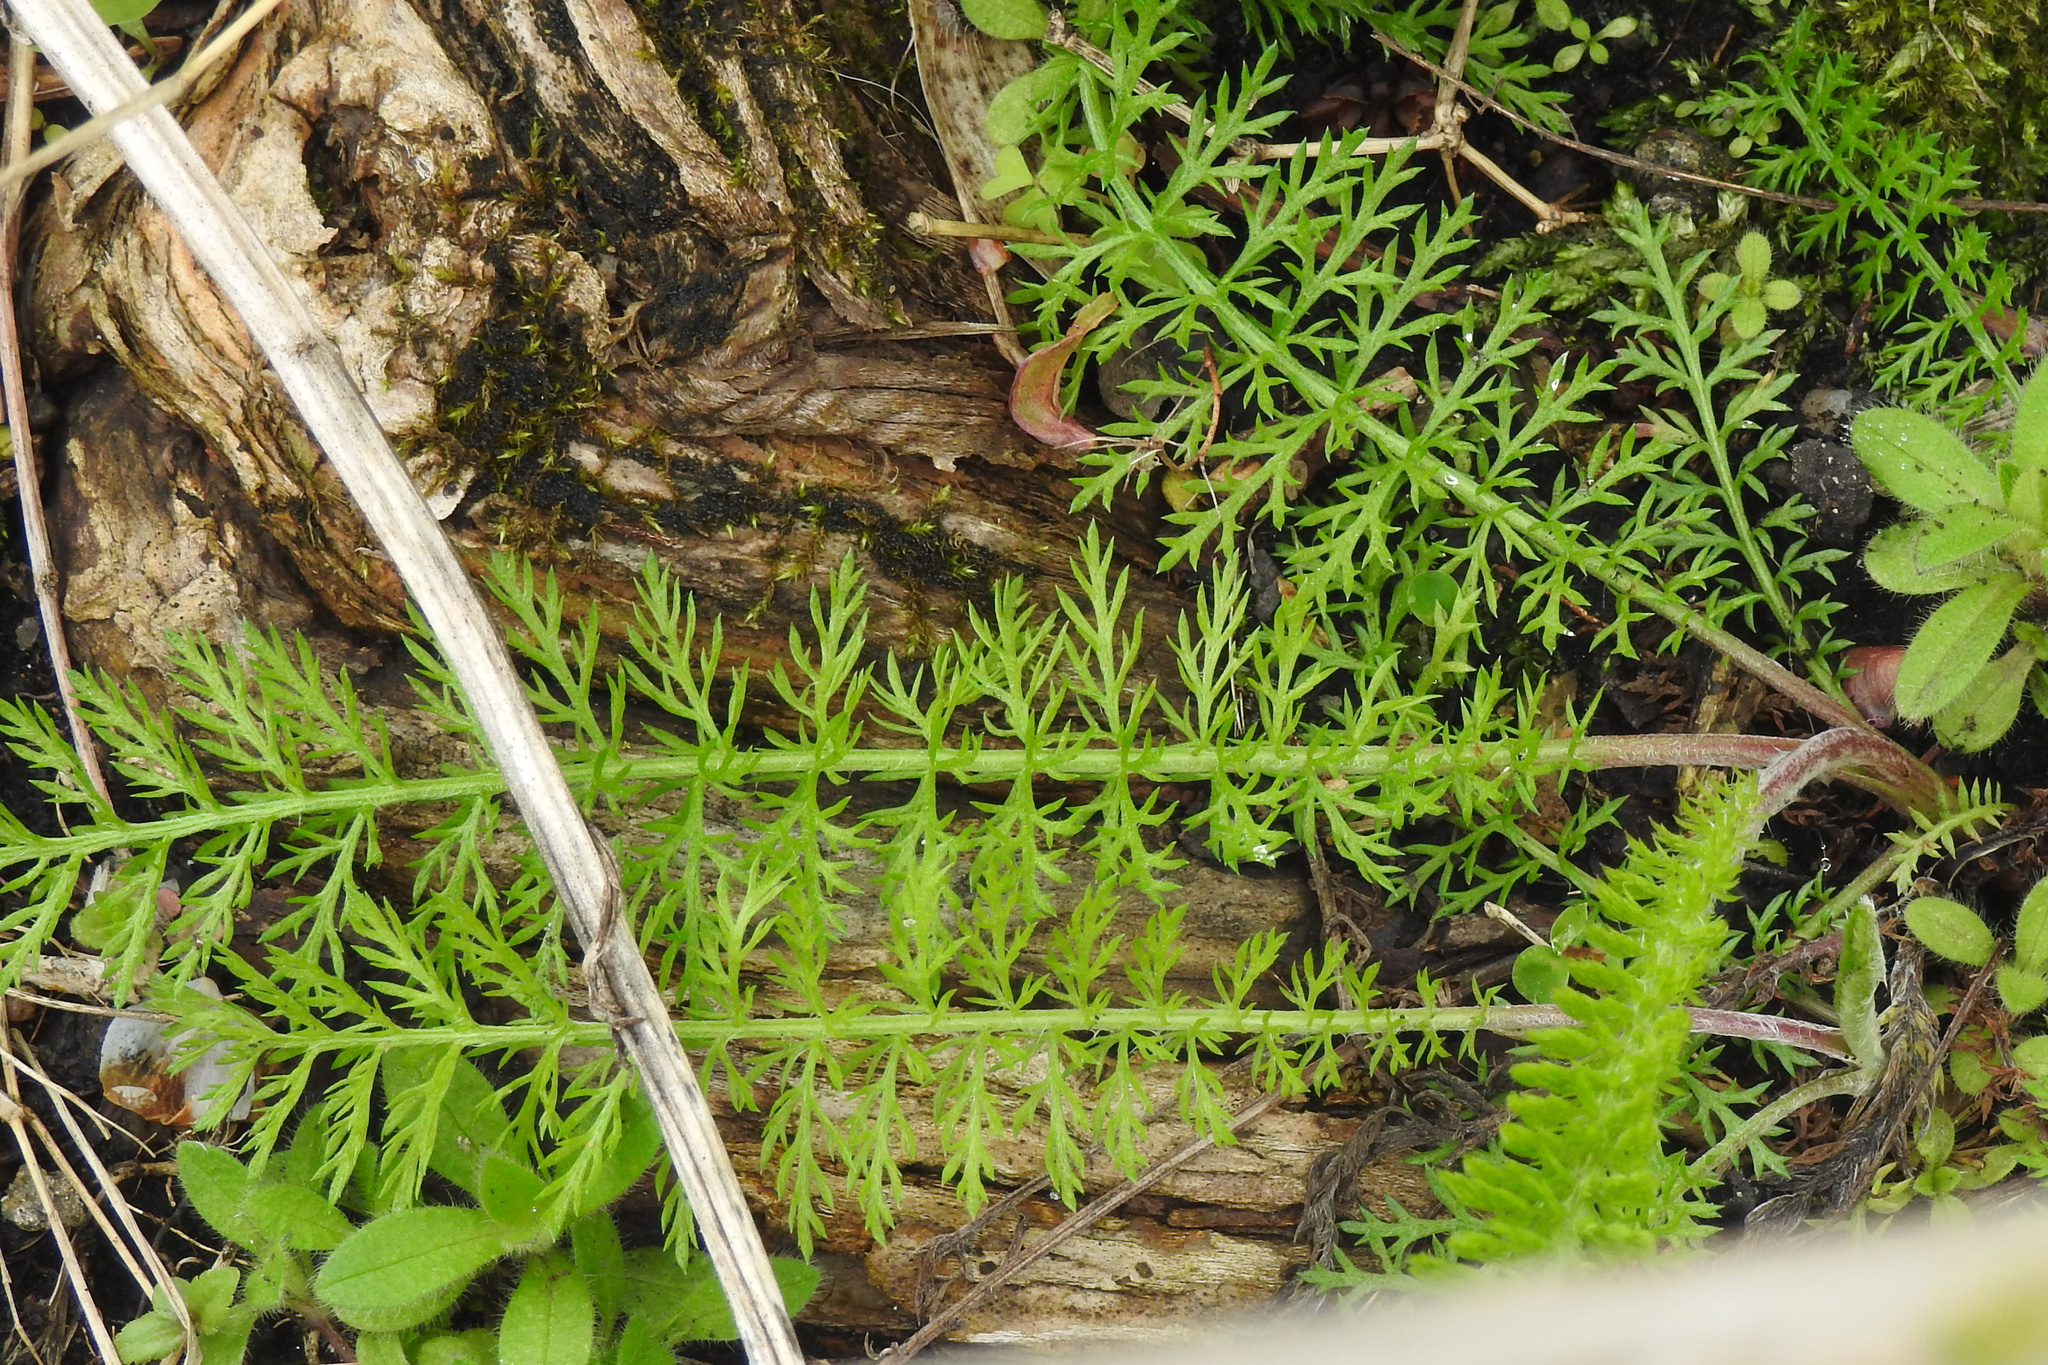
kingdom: Plantae
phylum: Tracheophyta
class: Magnoliopsida
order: Asterales
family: Asteraceae
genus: Achillea
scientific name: Achillea millefolium
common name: Yarrow
